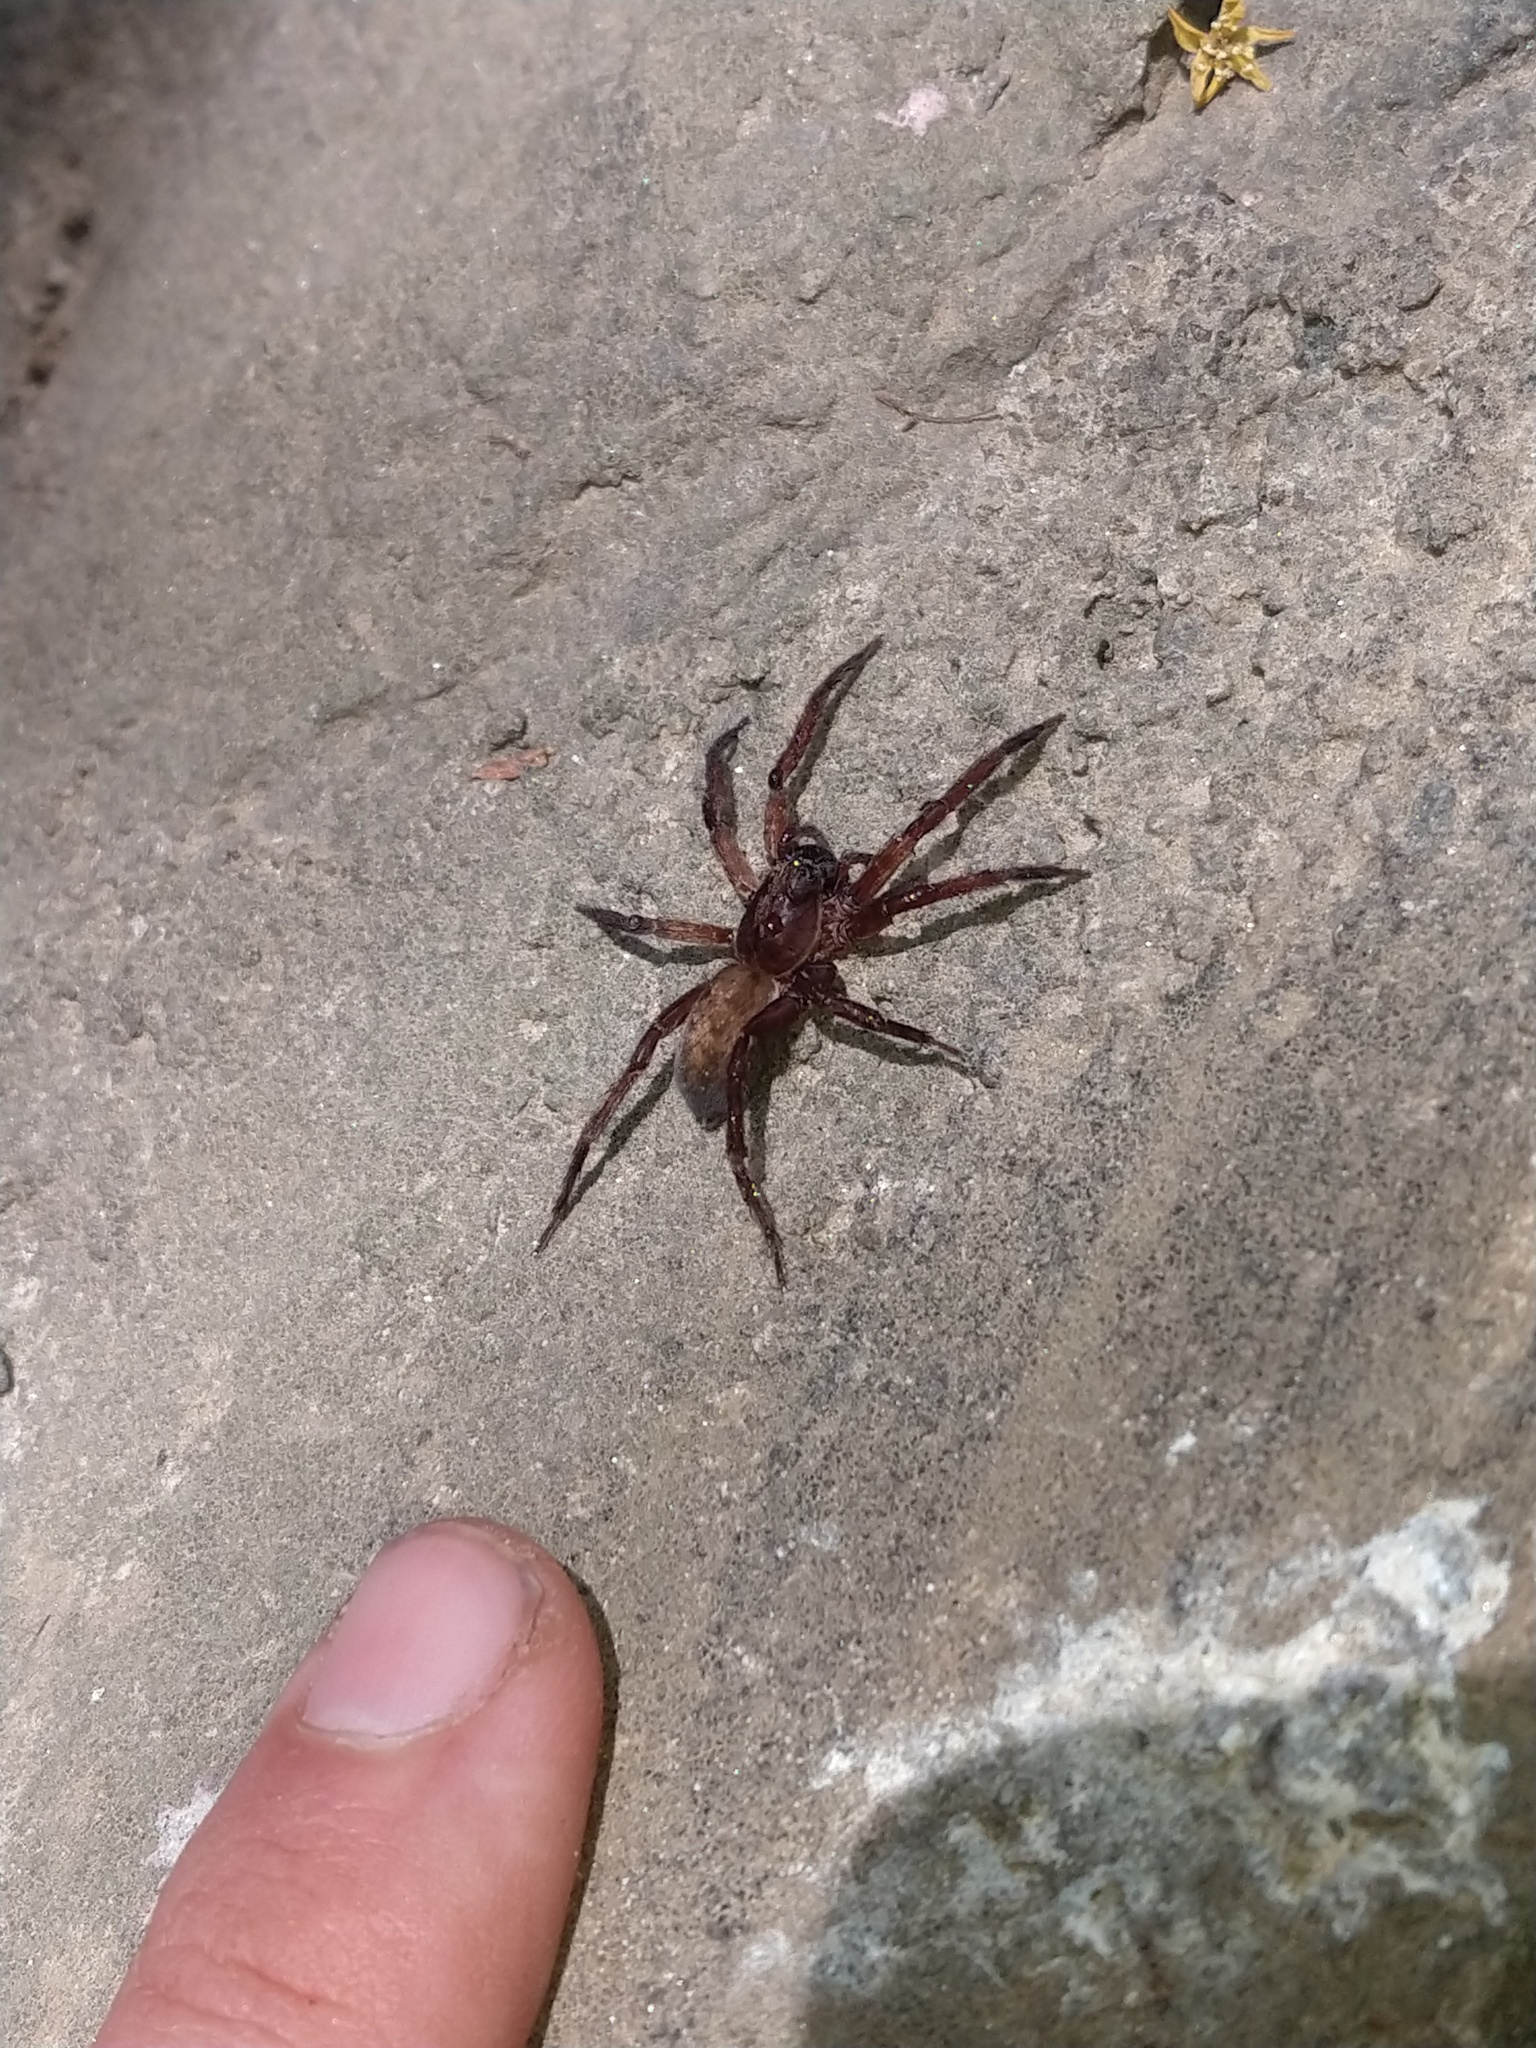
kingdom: Animalia
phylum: Arthropoda
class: Arachnida
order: Araneae
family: Ctenidae
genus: Asthenoctenus
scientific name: Asthenoctenus borellii
